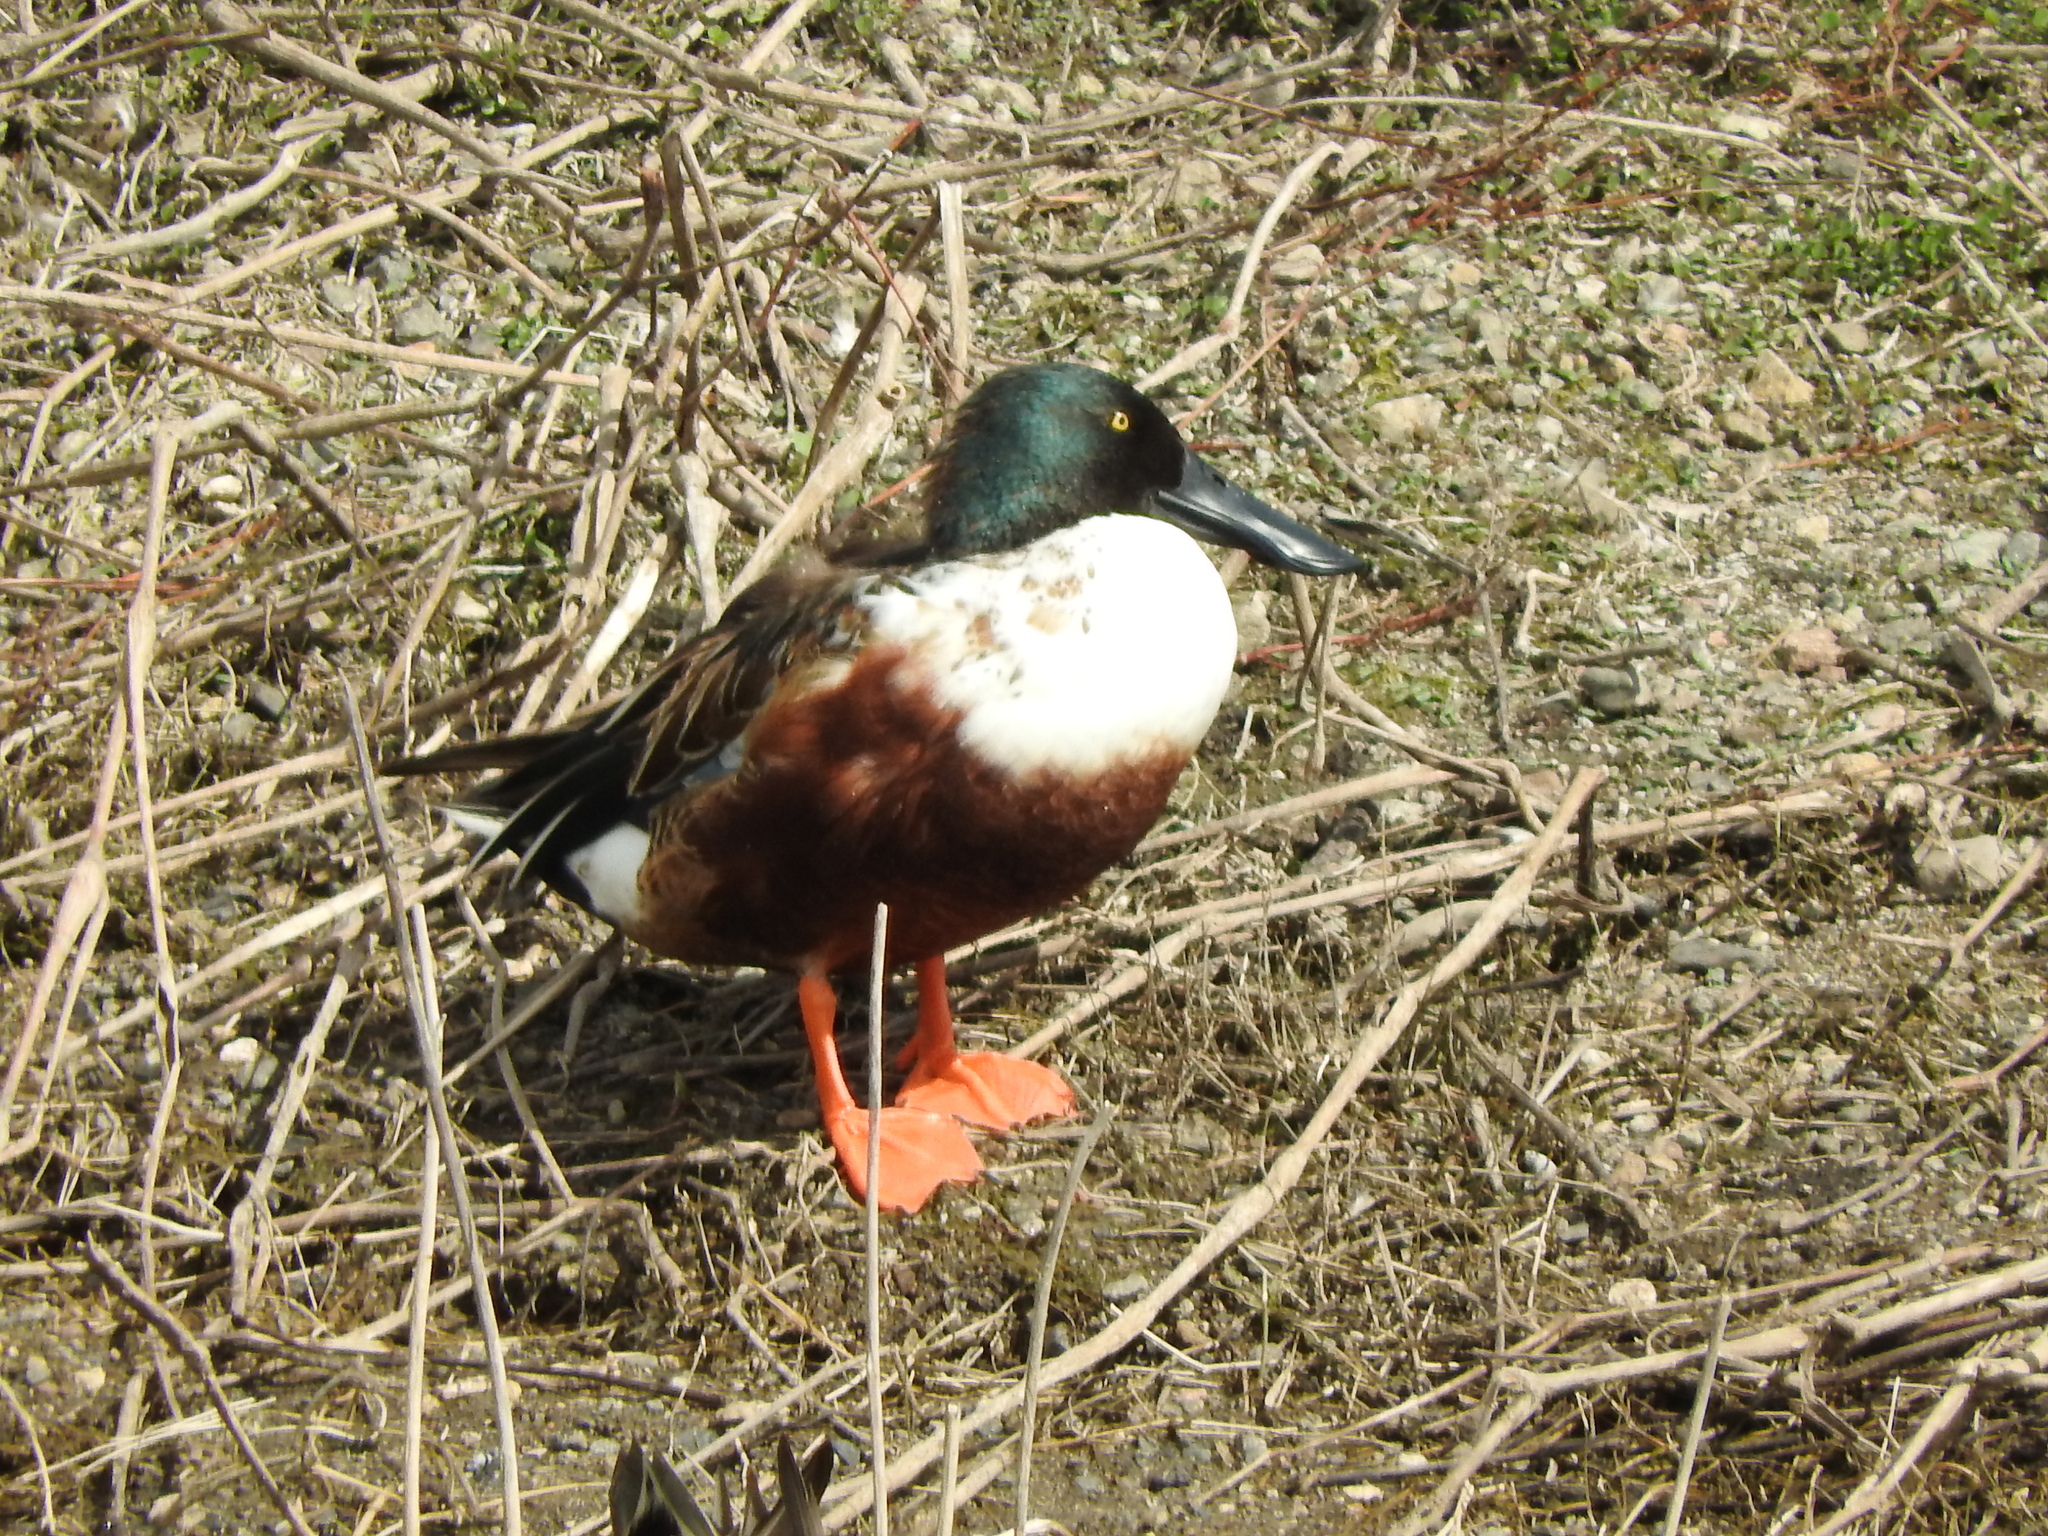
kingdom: Animalia
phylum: Chordata
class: Aves
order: Anseriformes
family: Anatidae
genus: Spatula
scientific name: Spatula clypeata
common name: Northern shoveler
